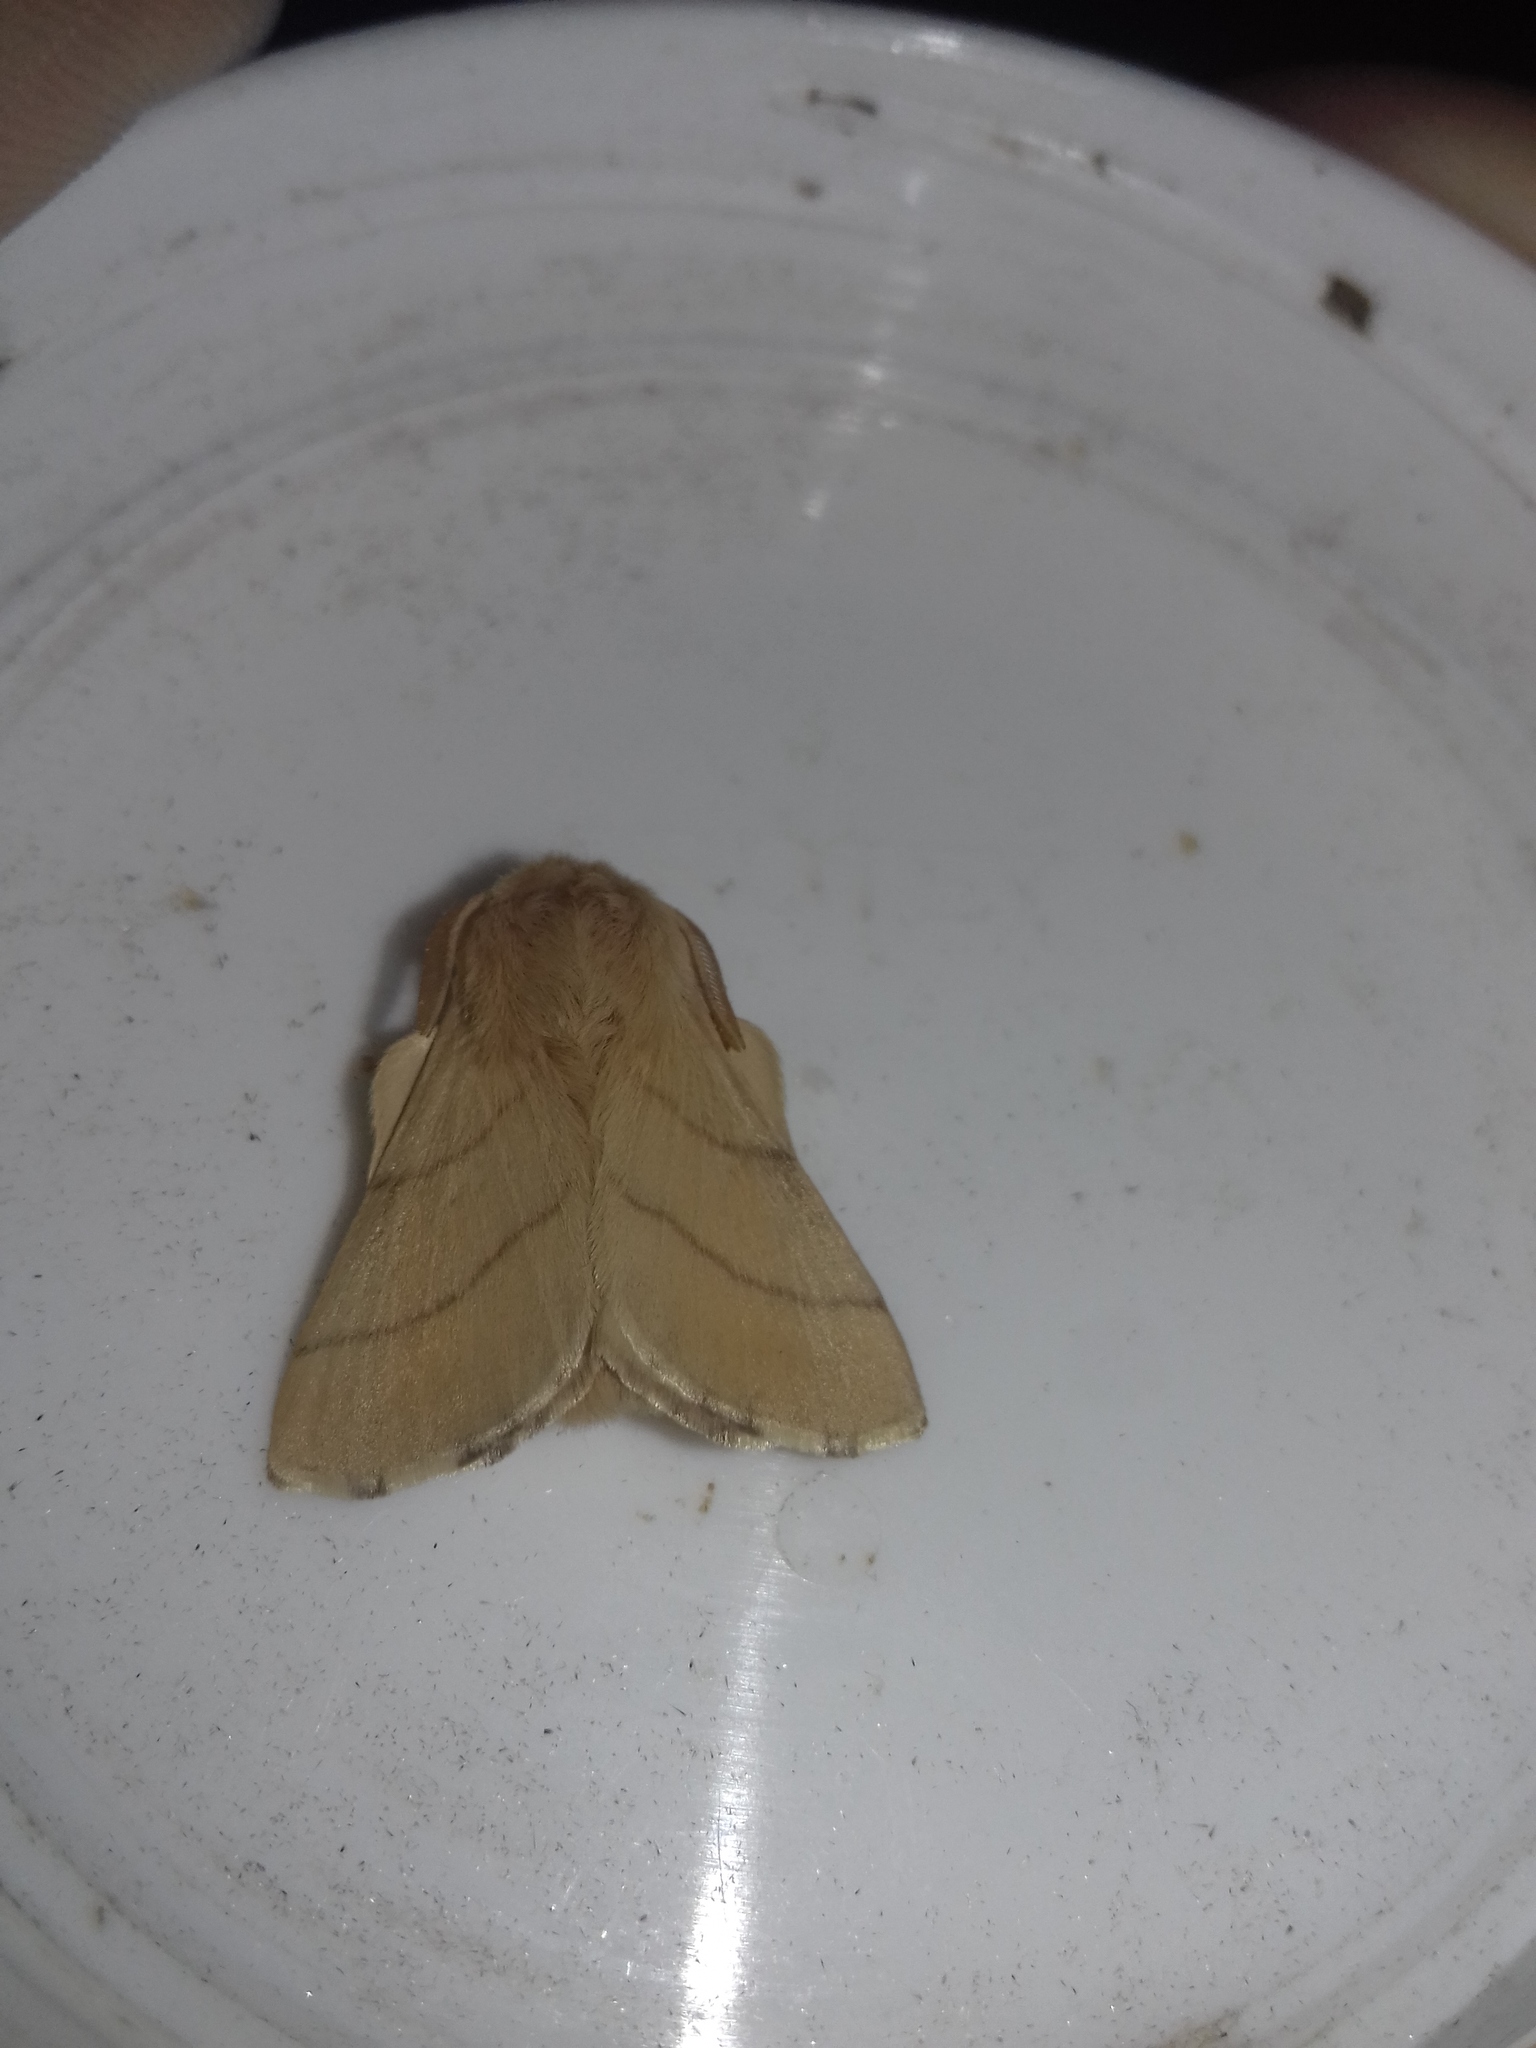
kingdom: Animalia
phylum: Arthropoda
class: Insecta
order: Lepidoptera
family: Lasiocampidae
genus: Malacosoma
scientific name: Malacosoma neustria
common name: The lackey
